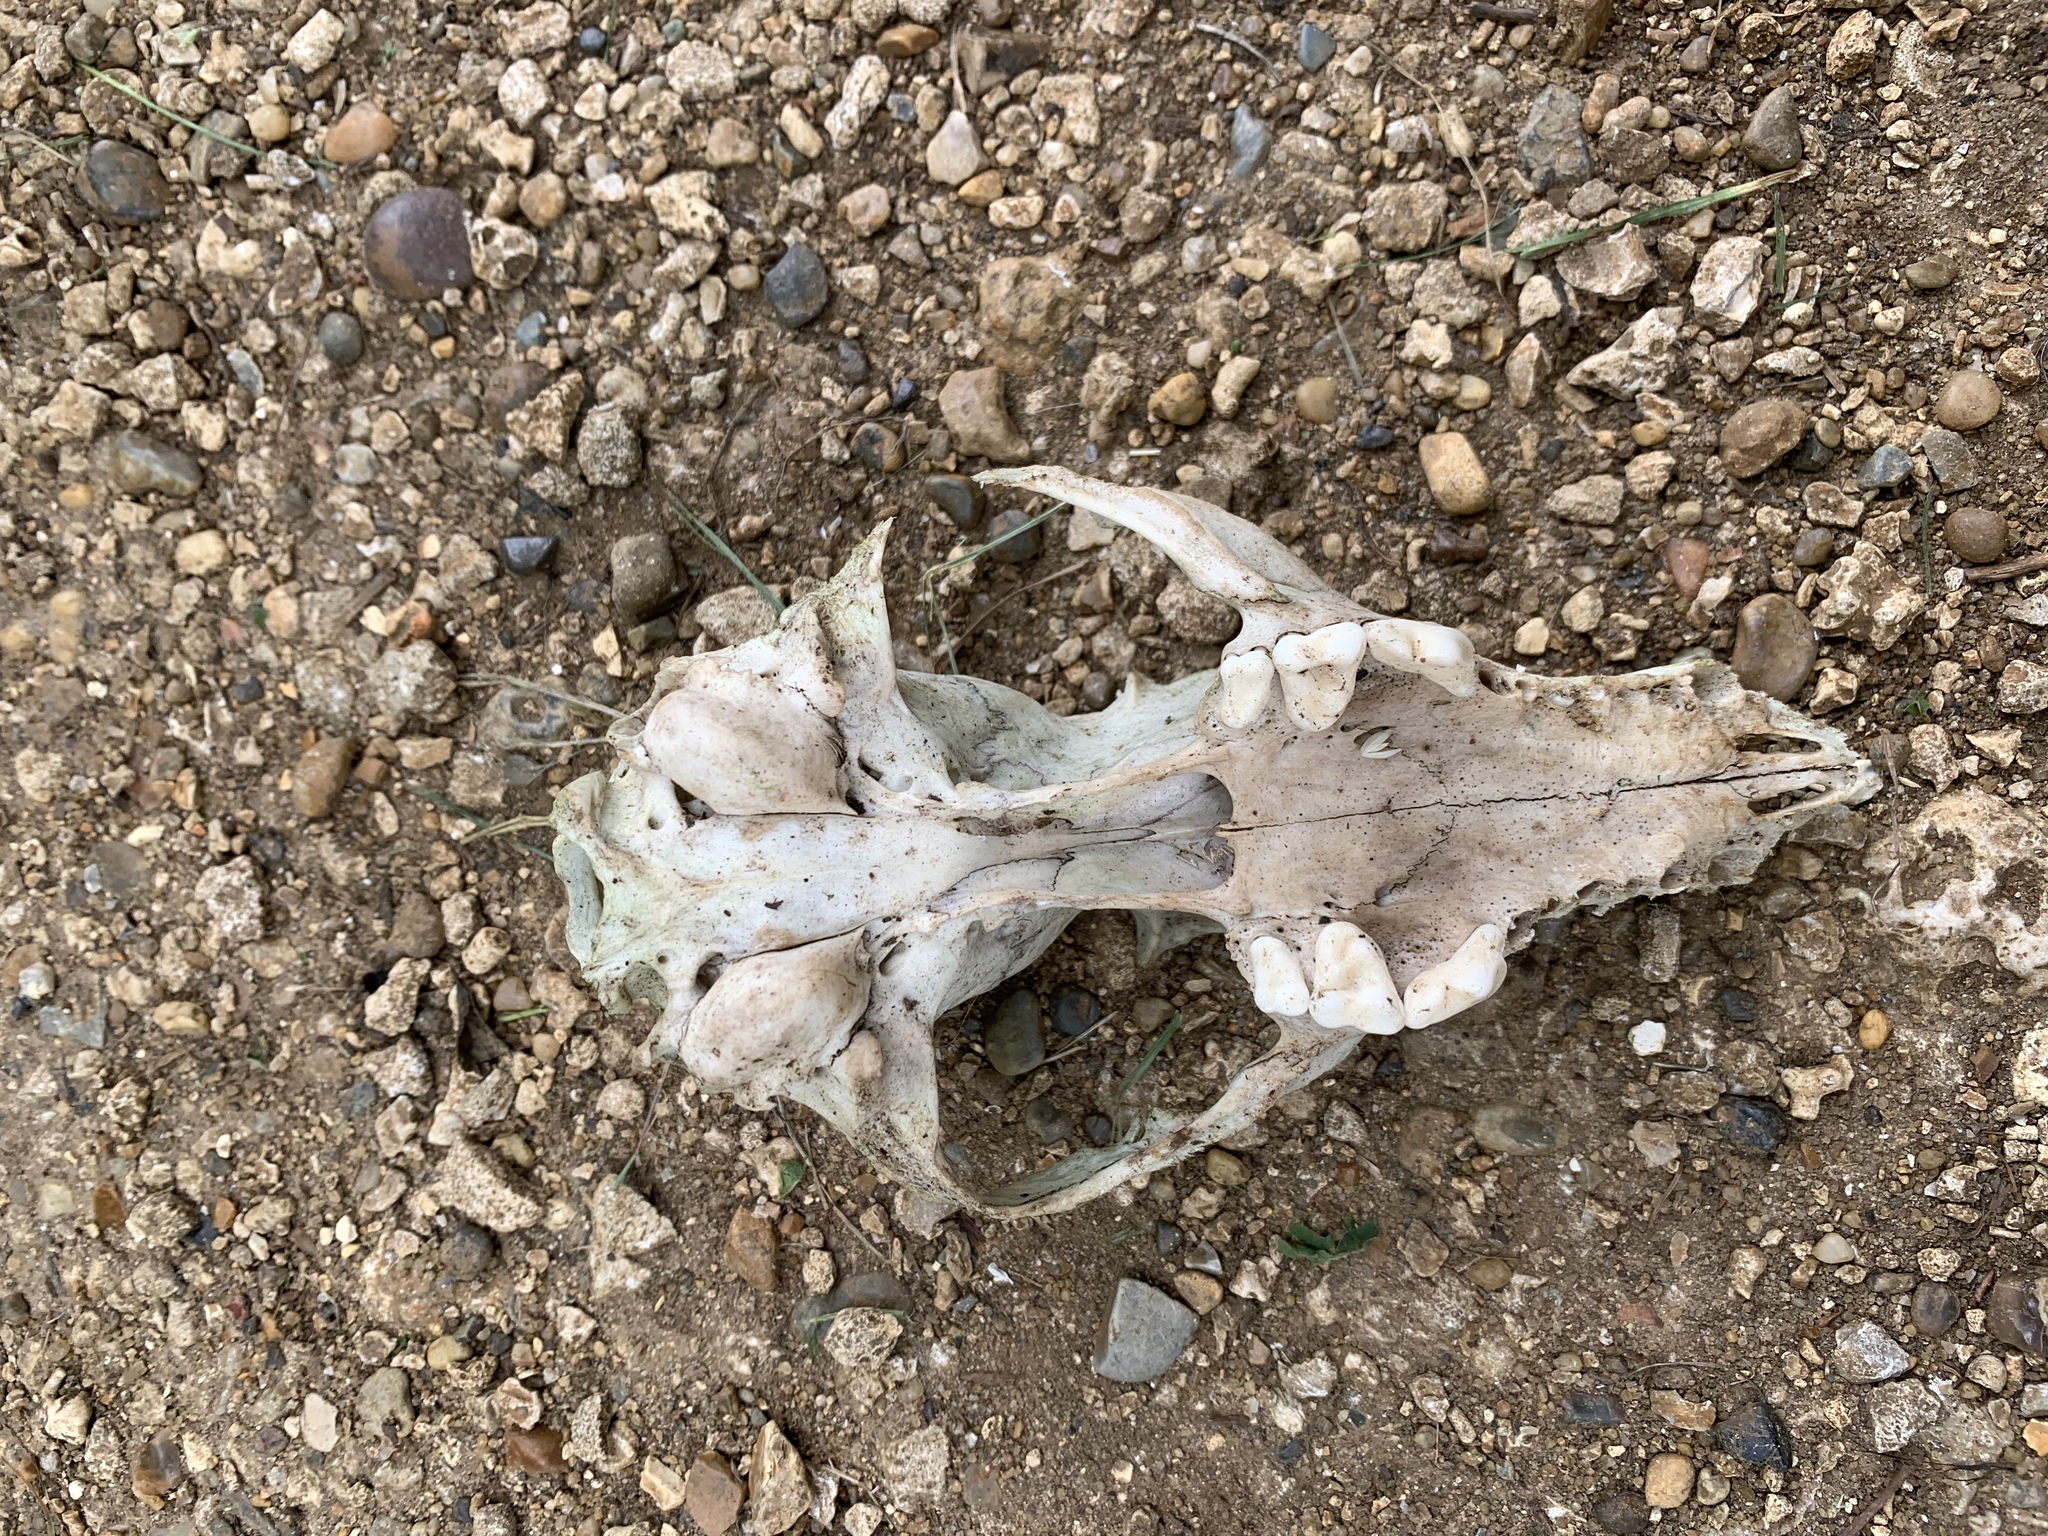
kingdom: Animalia
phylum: Chordata
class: Mammalia
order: Carnivora
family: Canidae
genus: Vulpes
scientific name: Vulpes vulpes
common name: Red fox
